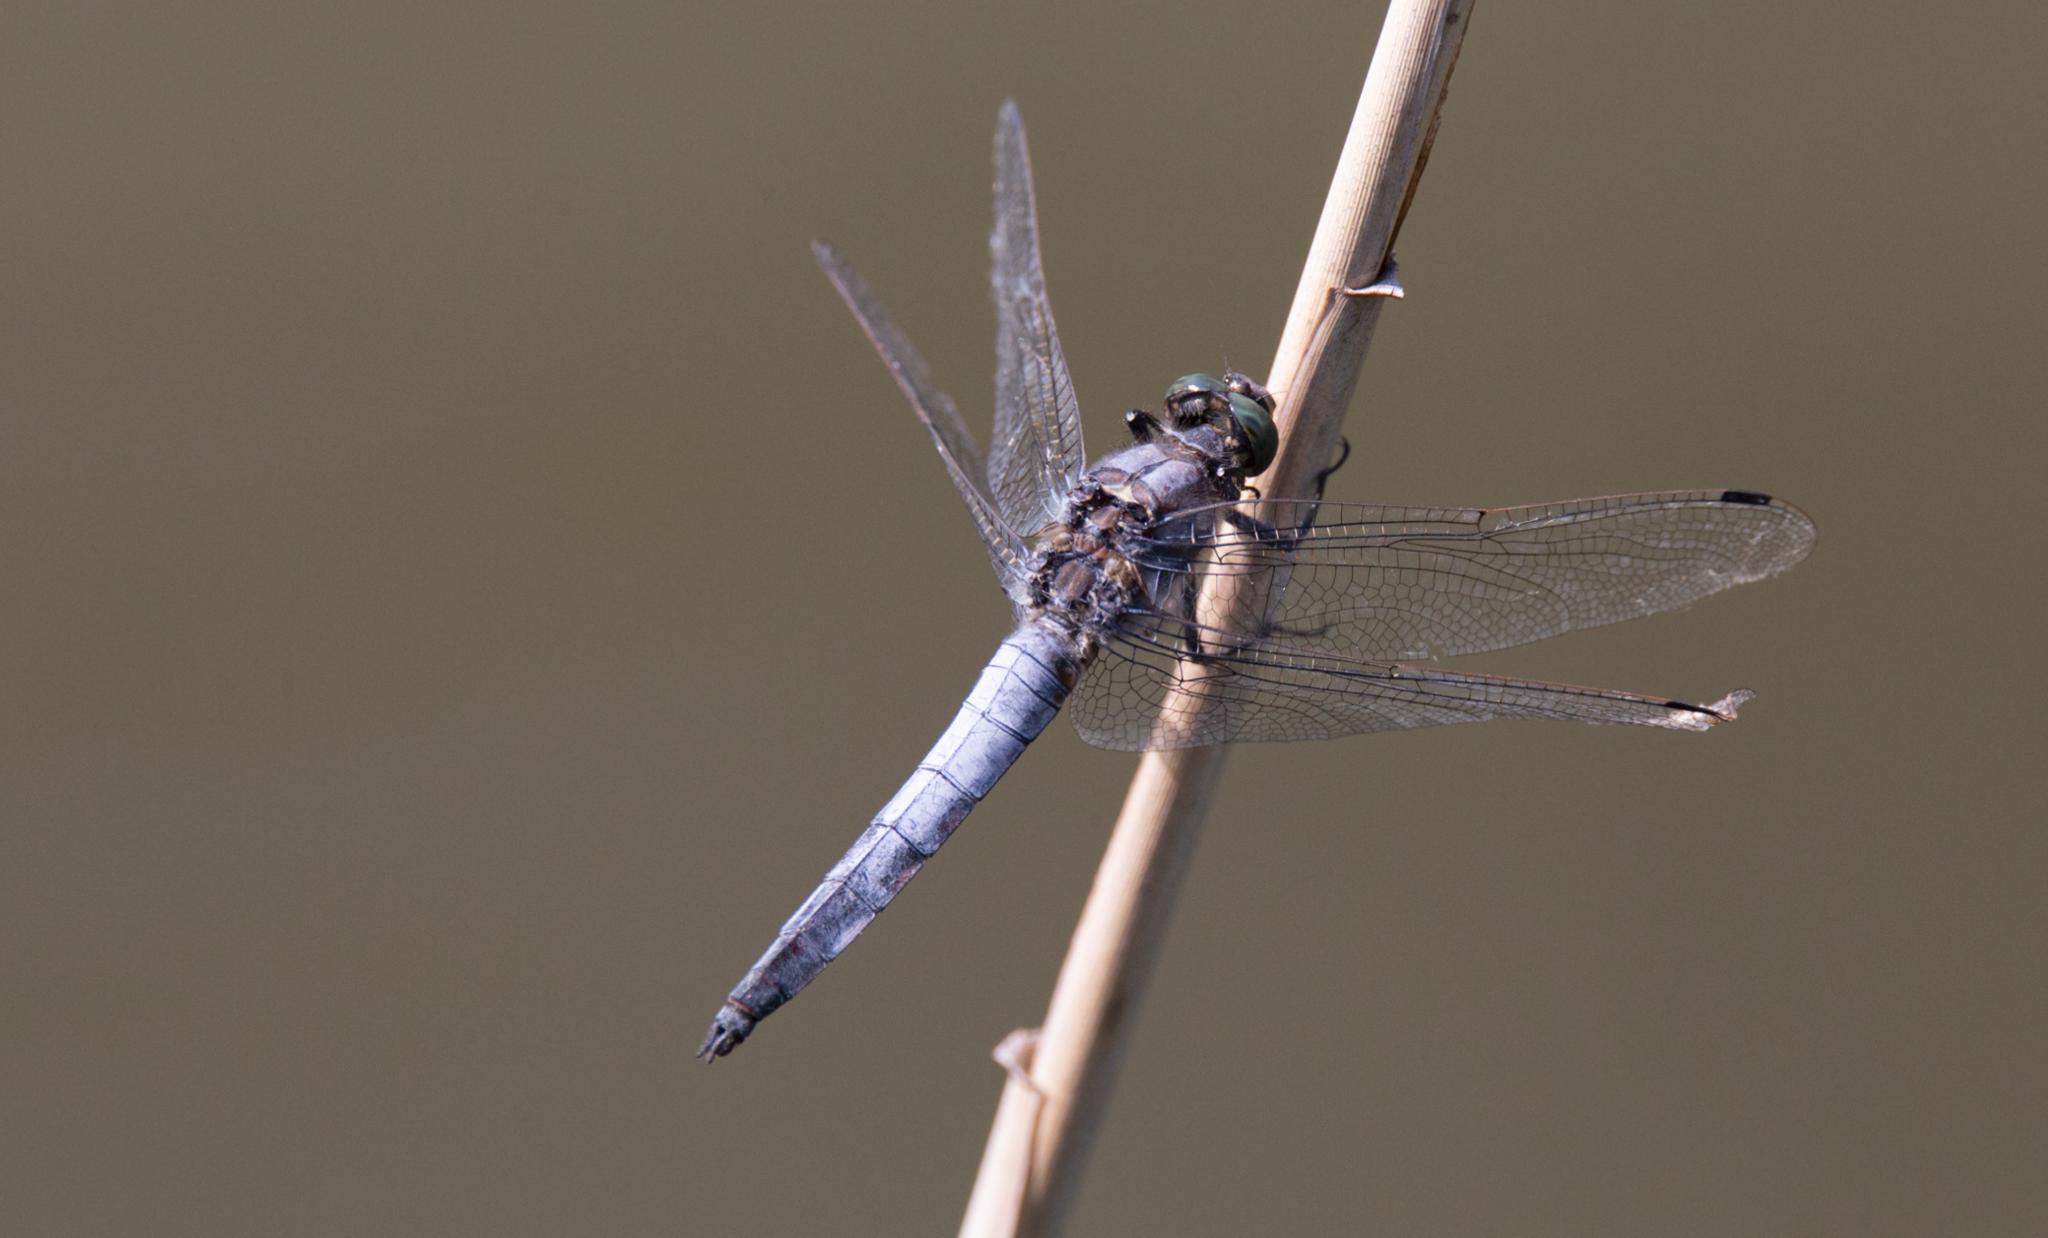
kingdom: Animalia
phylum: Arthropoda
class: Insecta
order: Odonata
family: Libellulidae
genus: Orthetrum
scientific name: Orthetrum cancellatum
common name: Black-tailed skimmer
